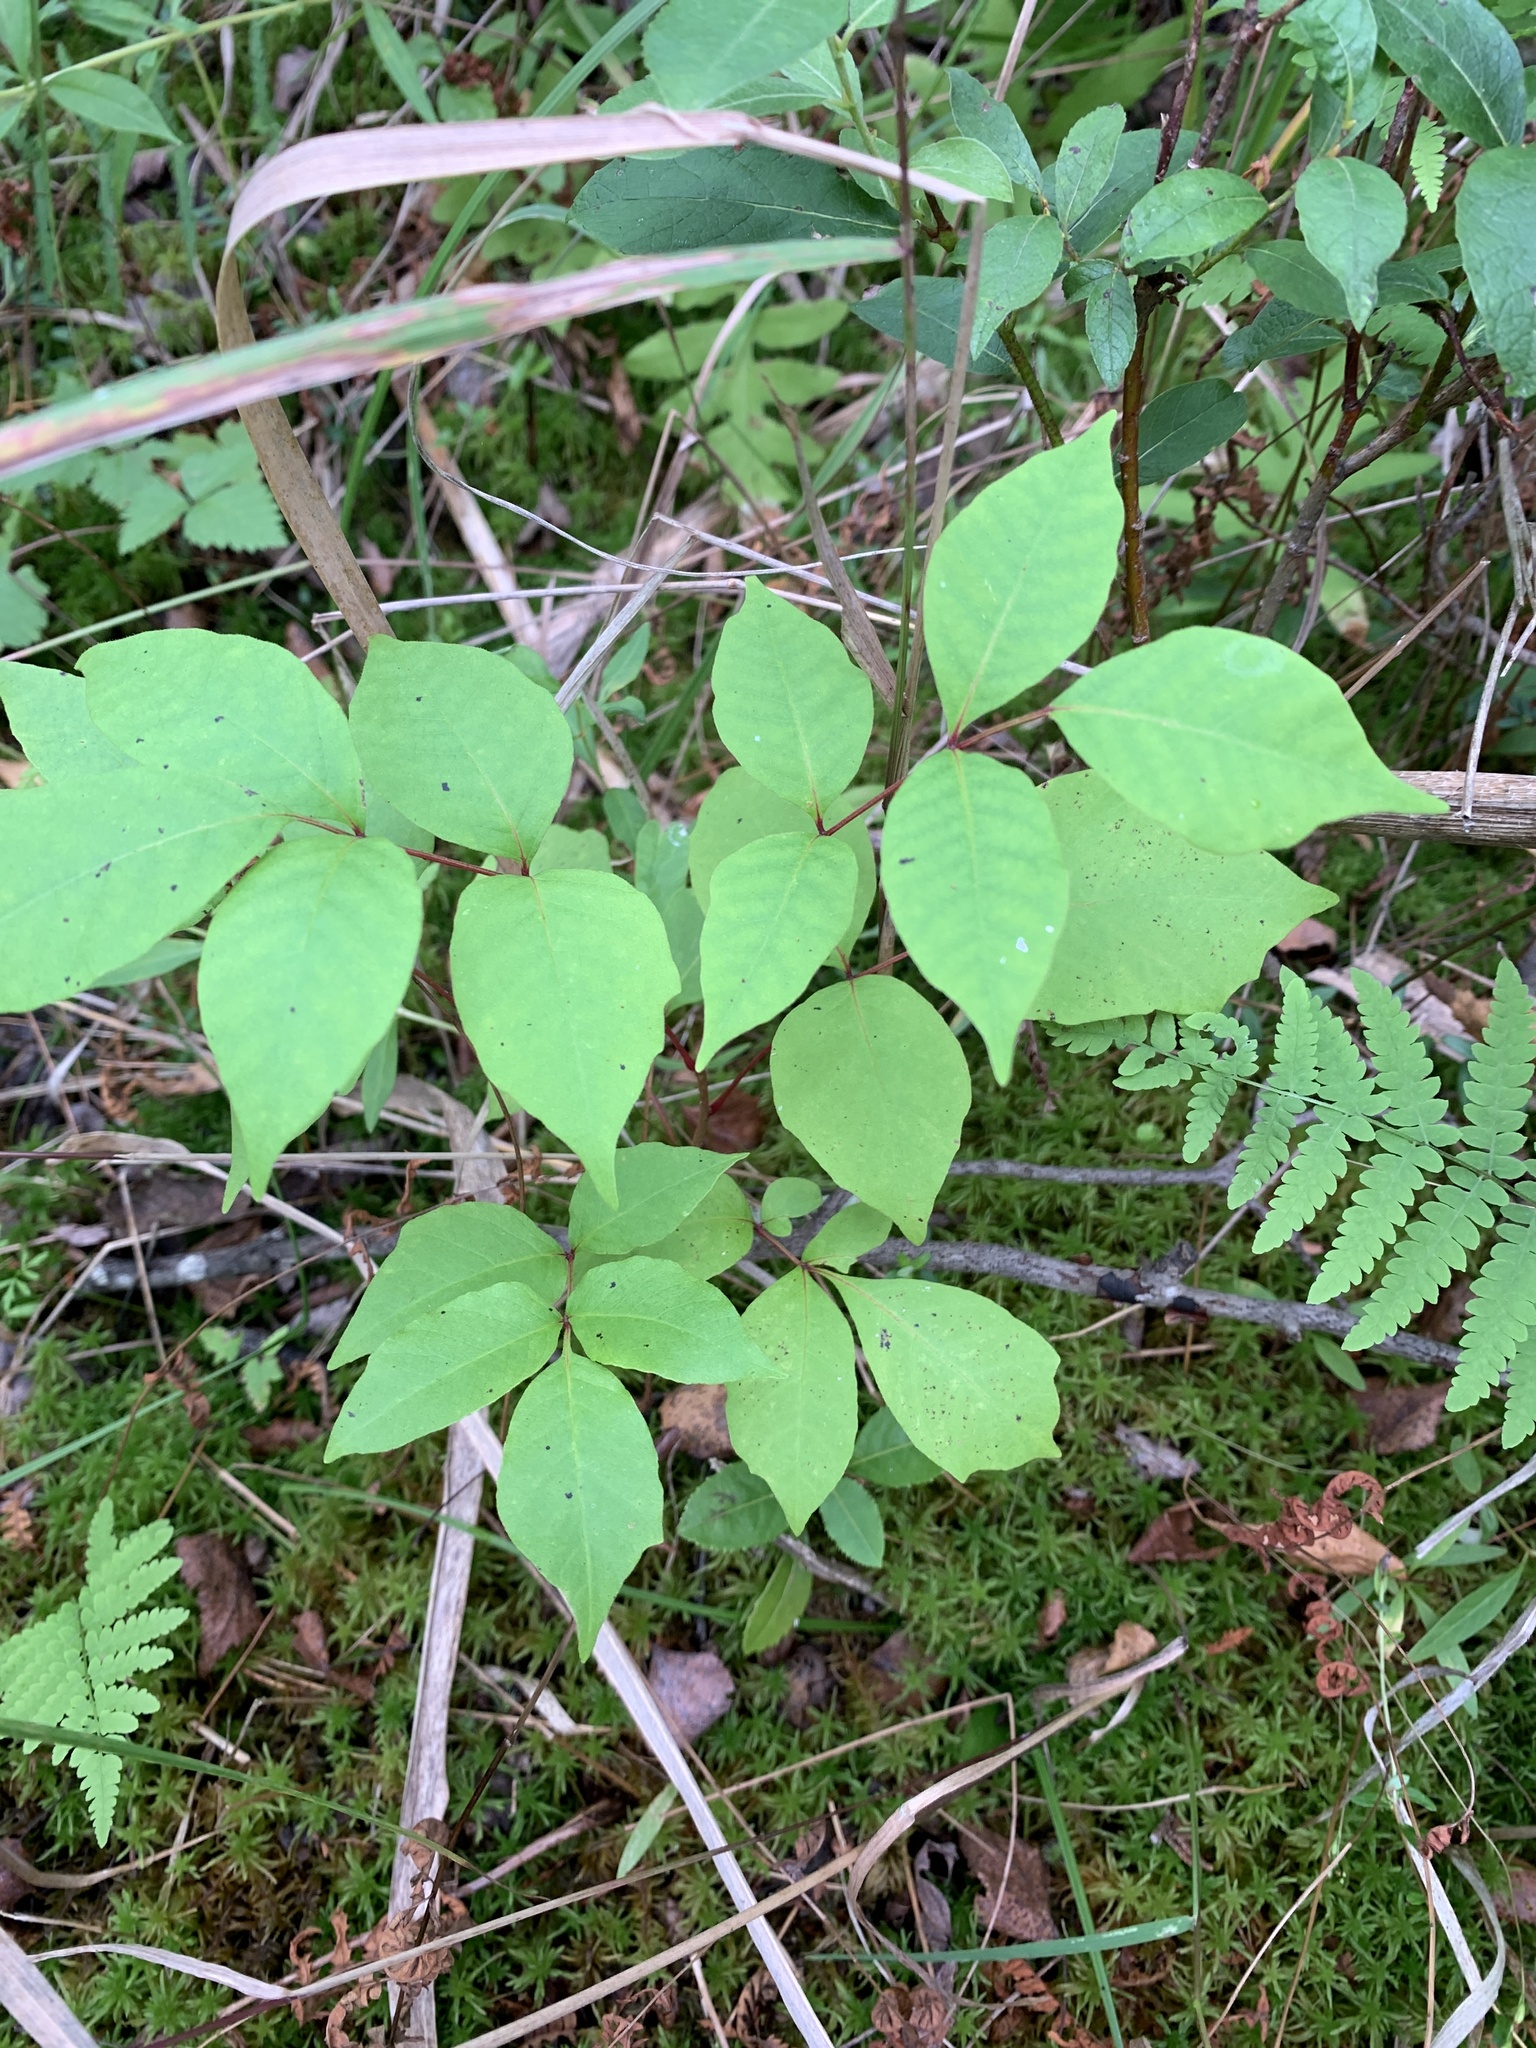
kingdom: Plantae
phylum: Tracheophyta
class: Magnoliopsida
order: Sapindales
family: Anacardiaceae
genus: Toxicodendron
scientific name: Toxicodendron vernix
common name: Poison sumac
